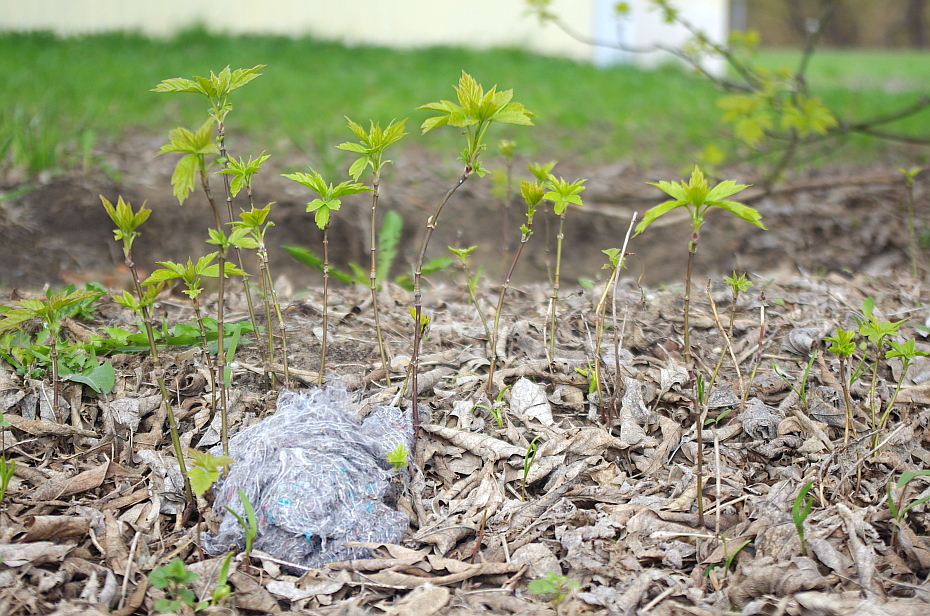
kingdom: Plantae
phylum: Tracheophyta
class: Magnoliopsida
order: Sapindales
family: Sapindaceae
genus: Acer
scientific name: Acer negundo
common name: Ashleaf maple
